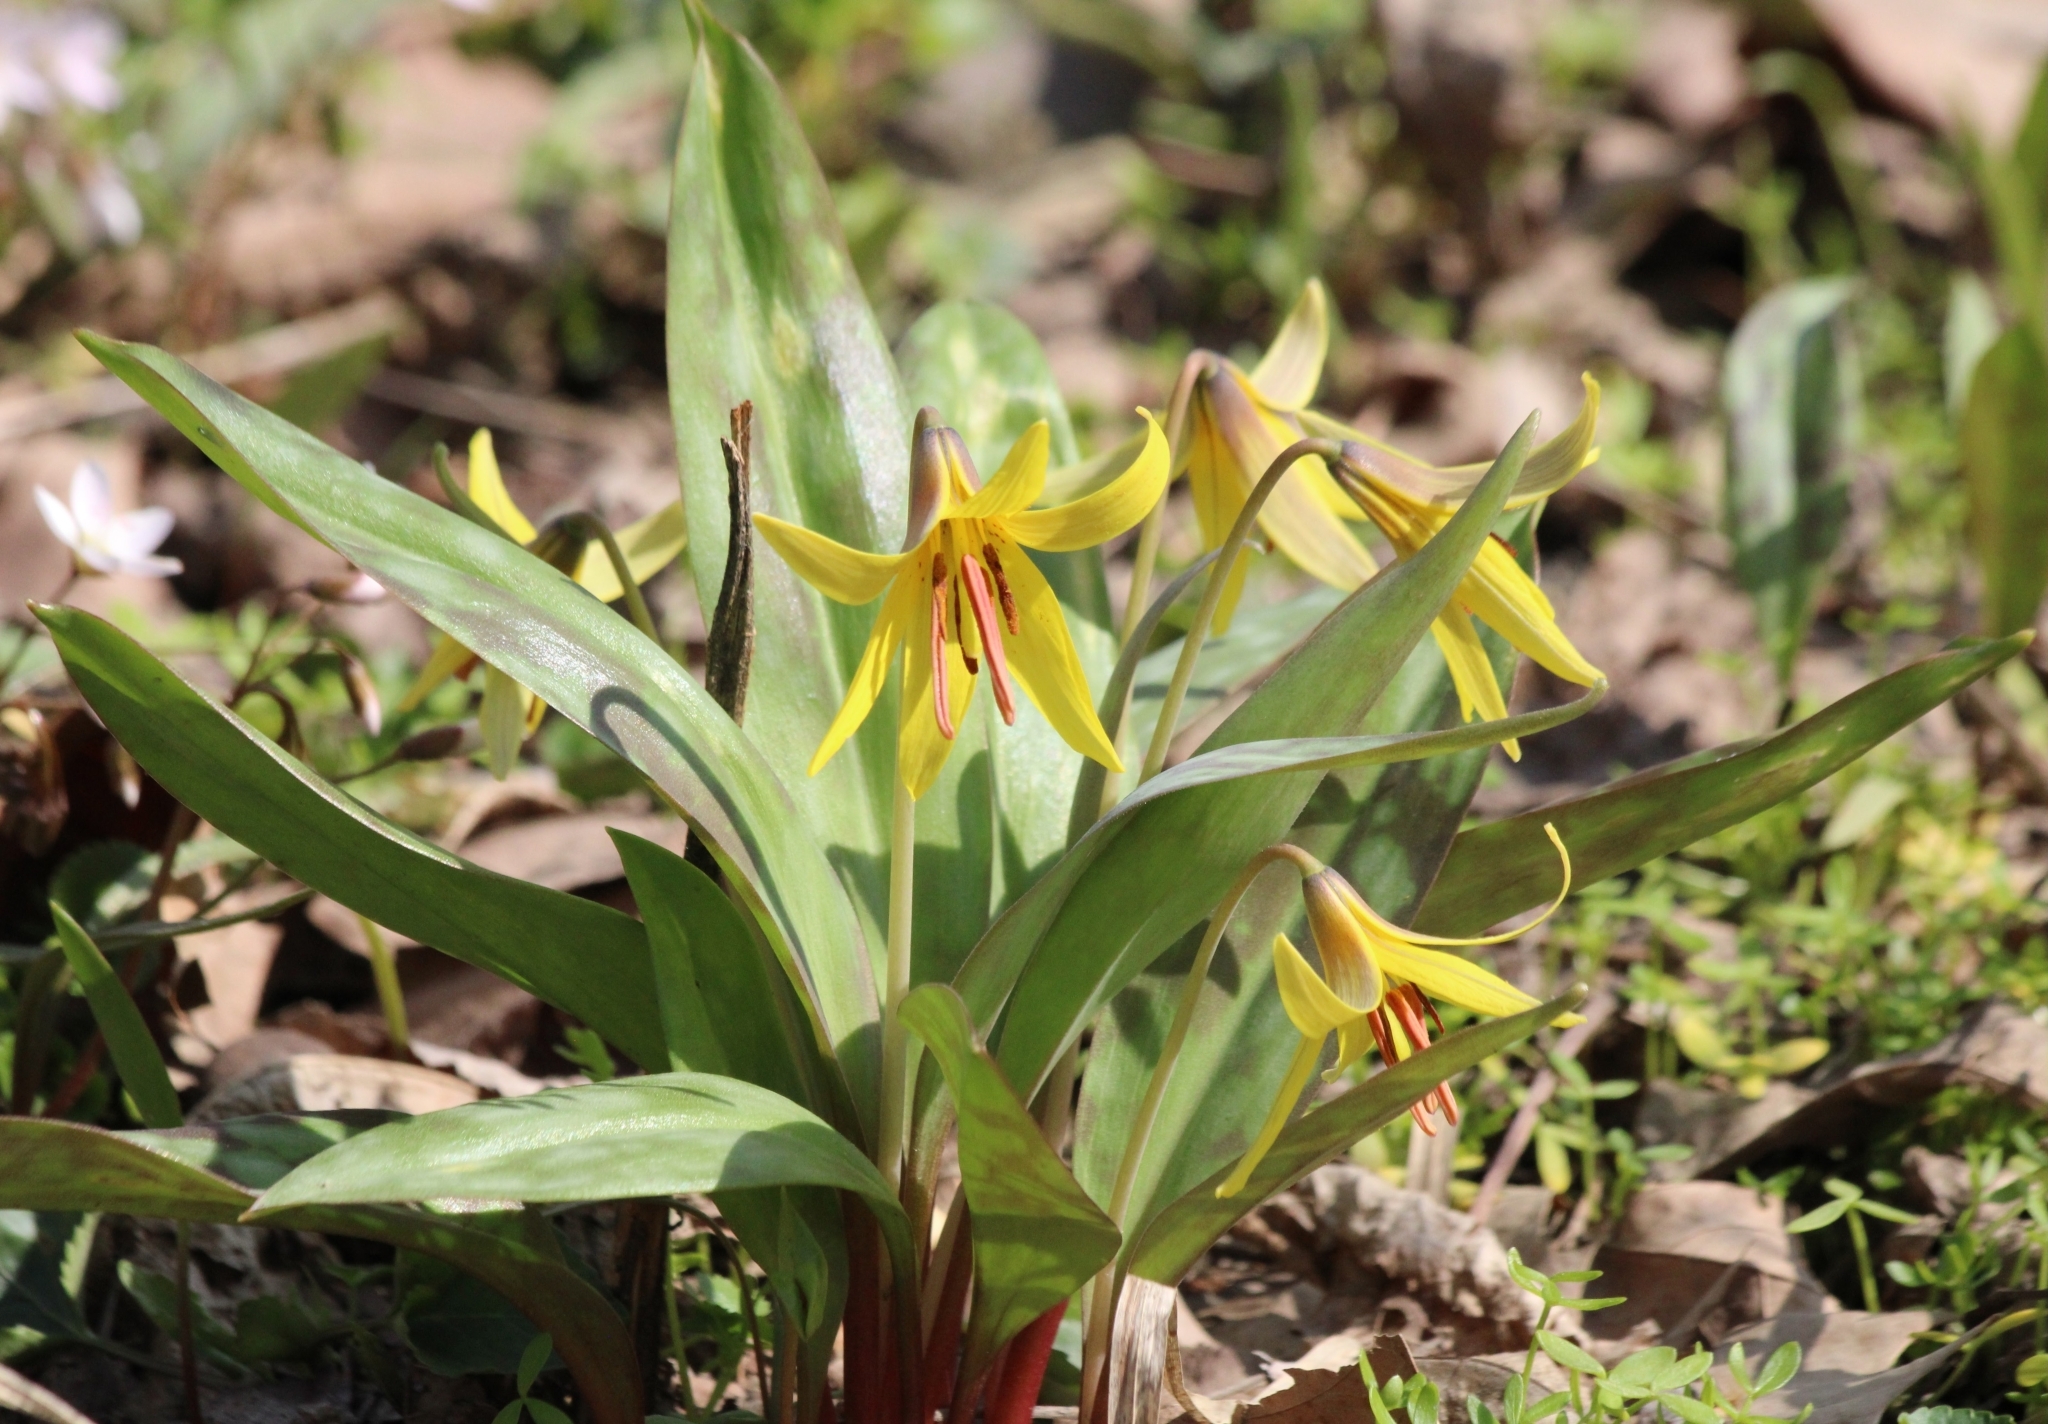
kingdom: Plantae
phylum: Tracheophyta
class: Liliopsida
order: Liliales
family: Liliaceae
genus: Erythronium
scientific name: Erythronium americanum
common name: Yellow adder's-tongue
